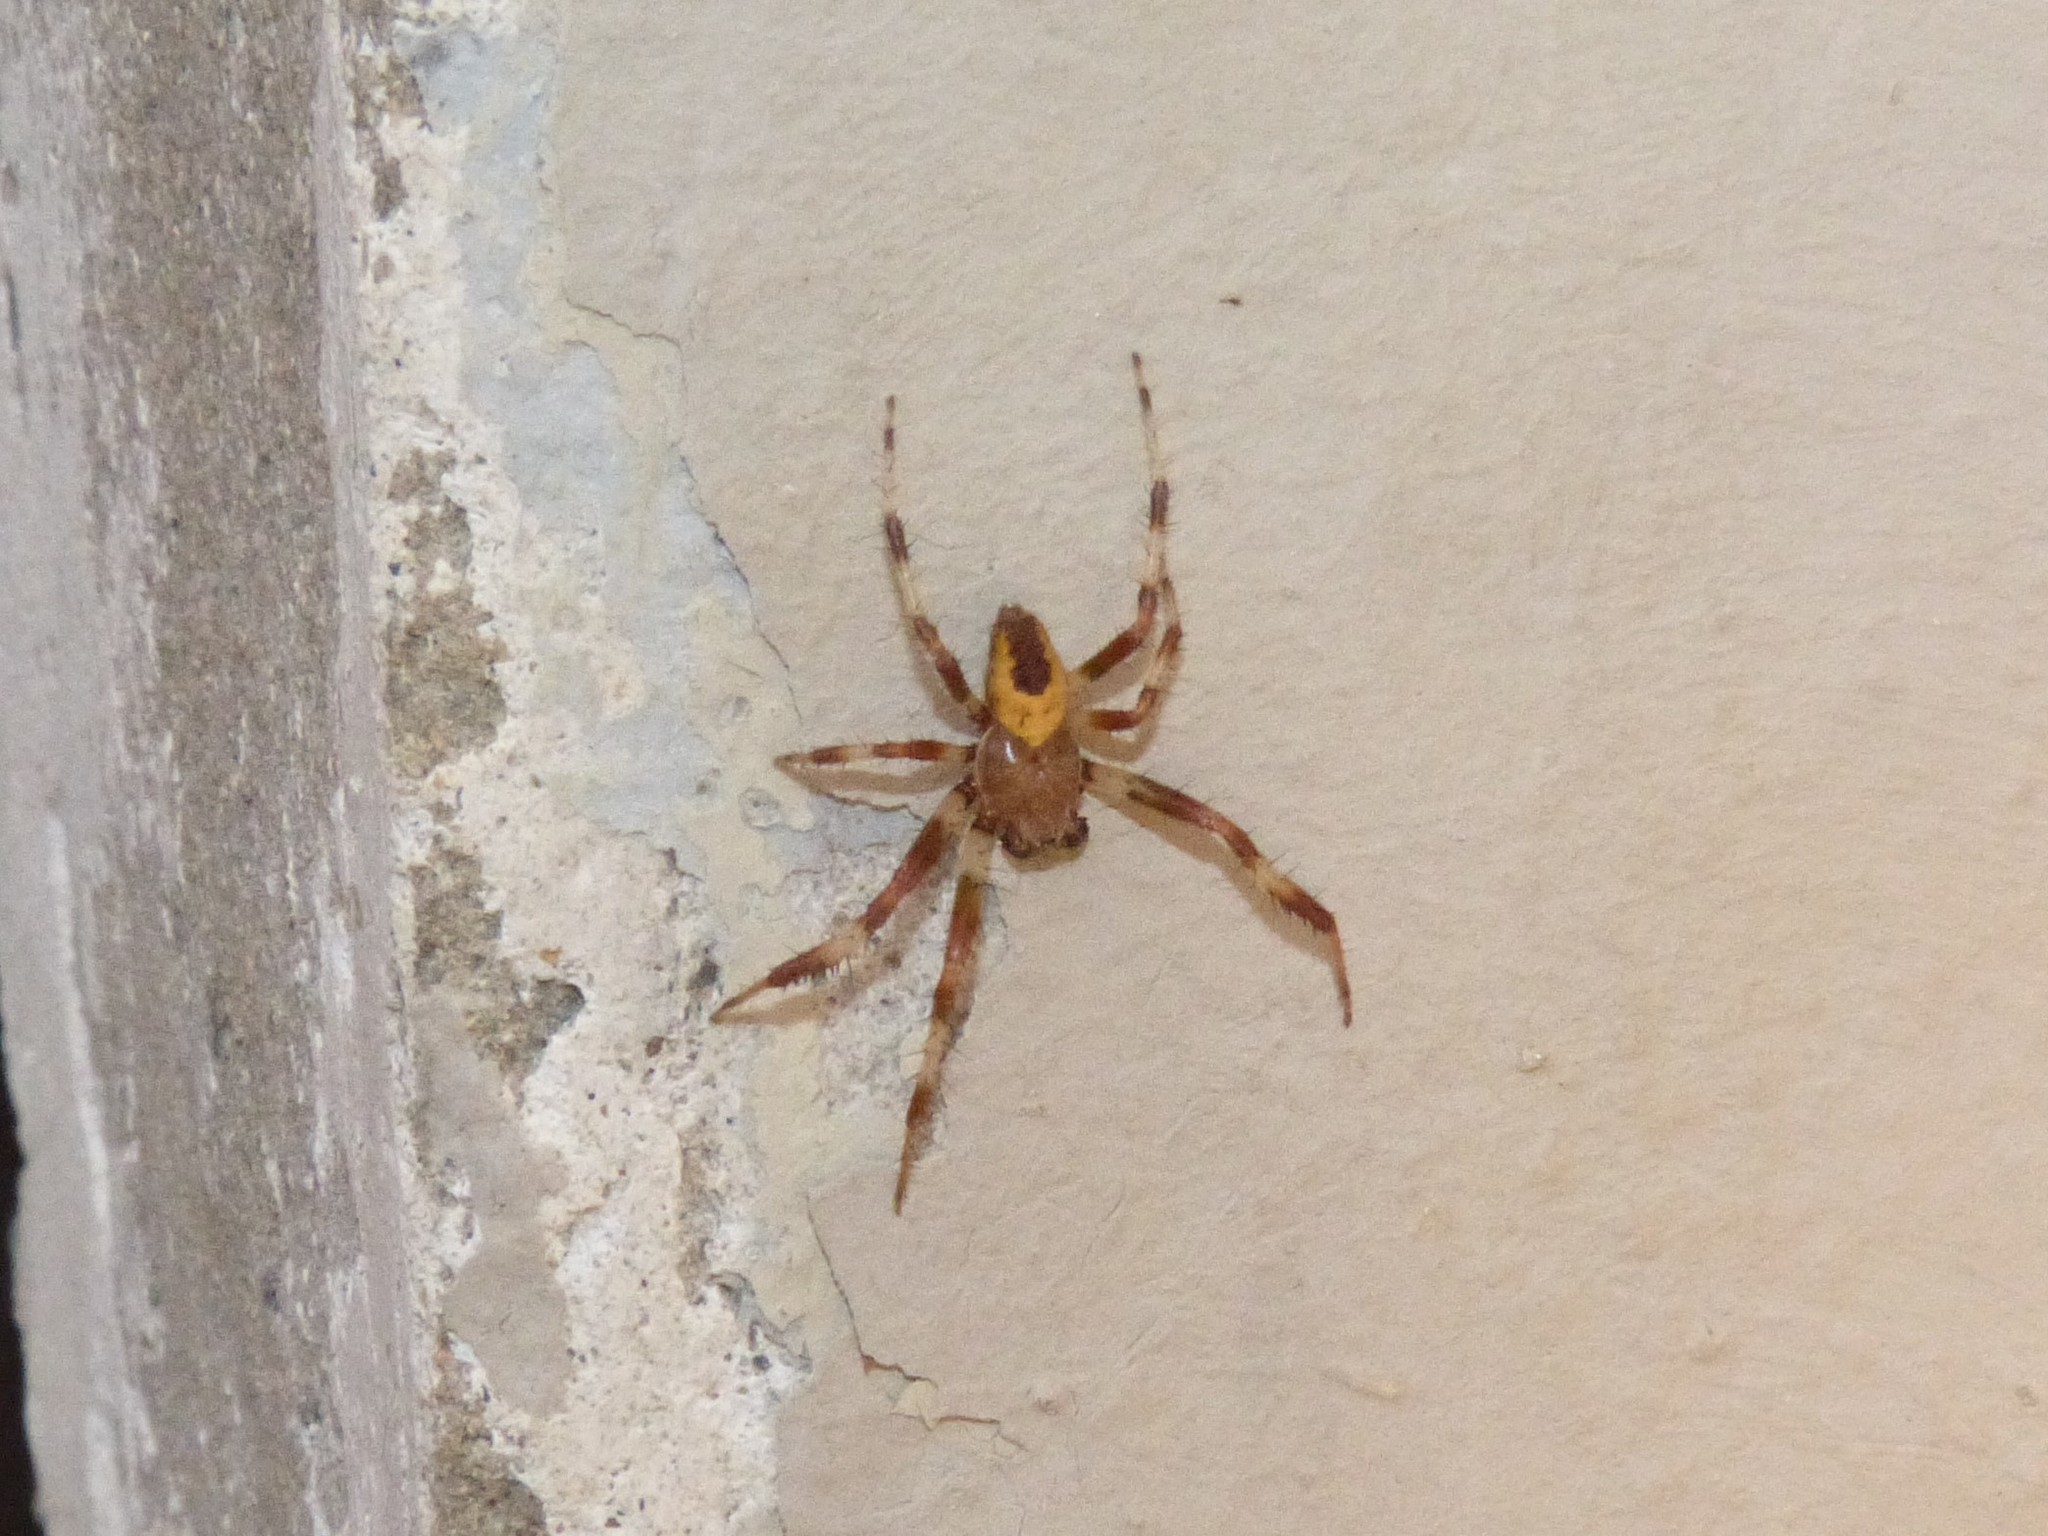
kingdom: Animalia
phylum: Arthropoda
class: Arachnida
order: Araneae
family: Araneidae
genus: Araneus
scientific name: Araneus marmoreus
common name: Marbled orbweaver
